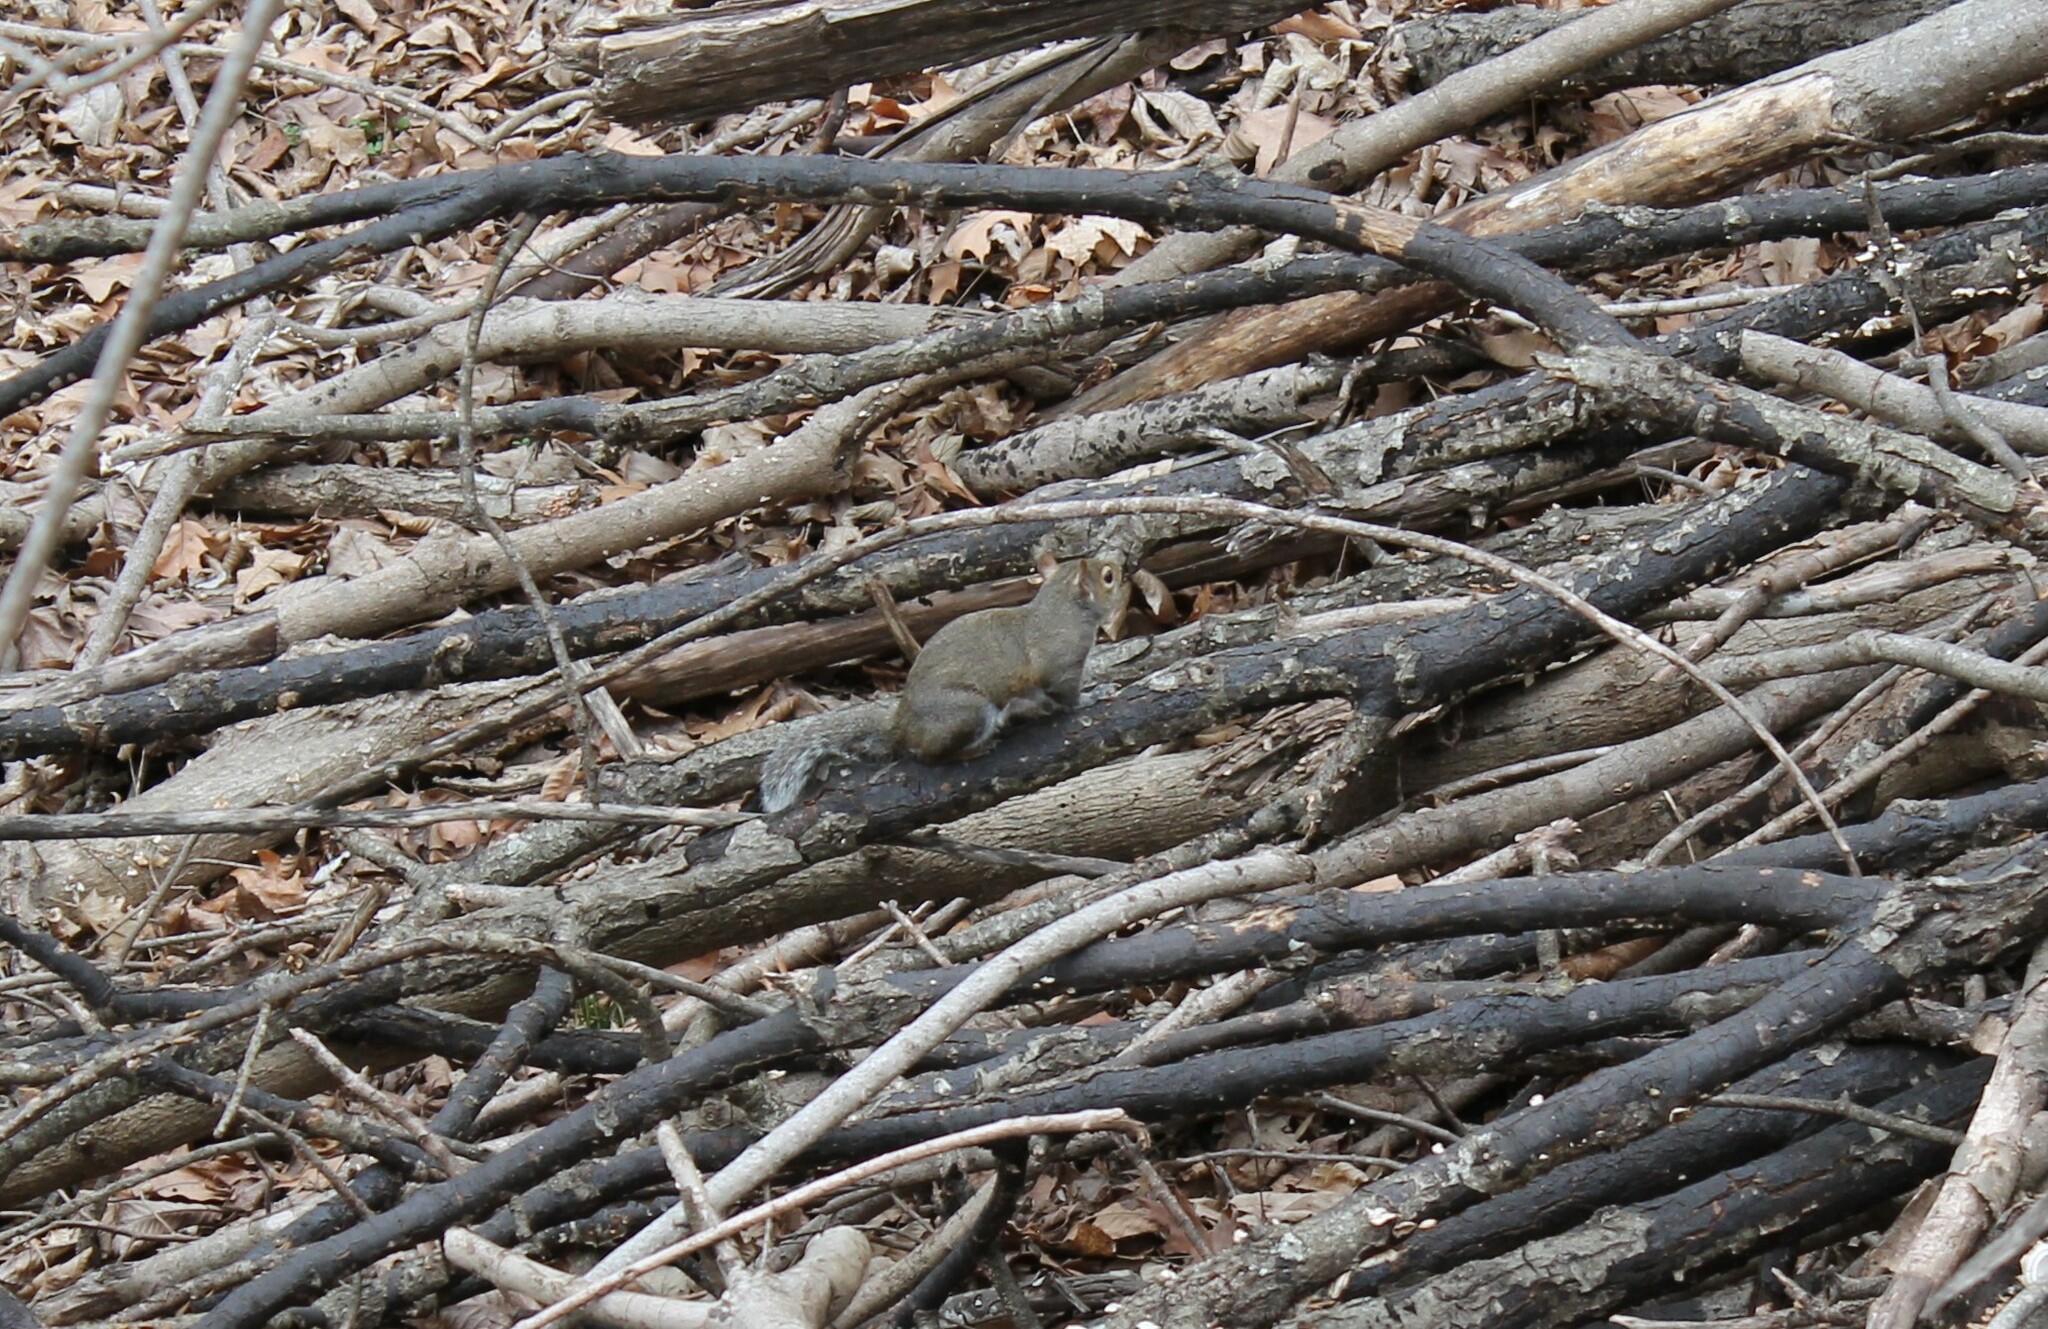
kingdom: Animalia
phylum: Chordata
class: Mammalia
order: Rodentia
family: Sciuridae
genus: Sciurus
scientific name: Sciurus carolinensis
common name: Eastern gray squirrel
